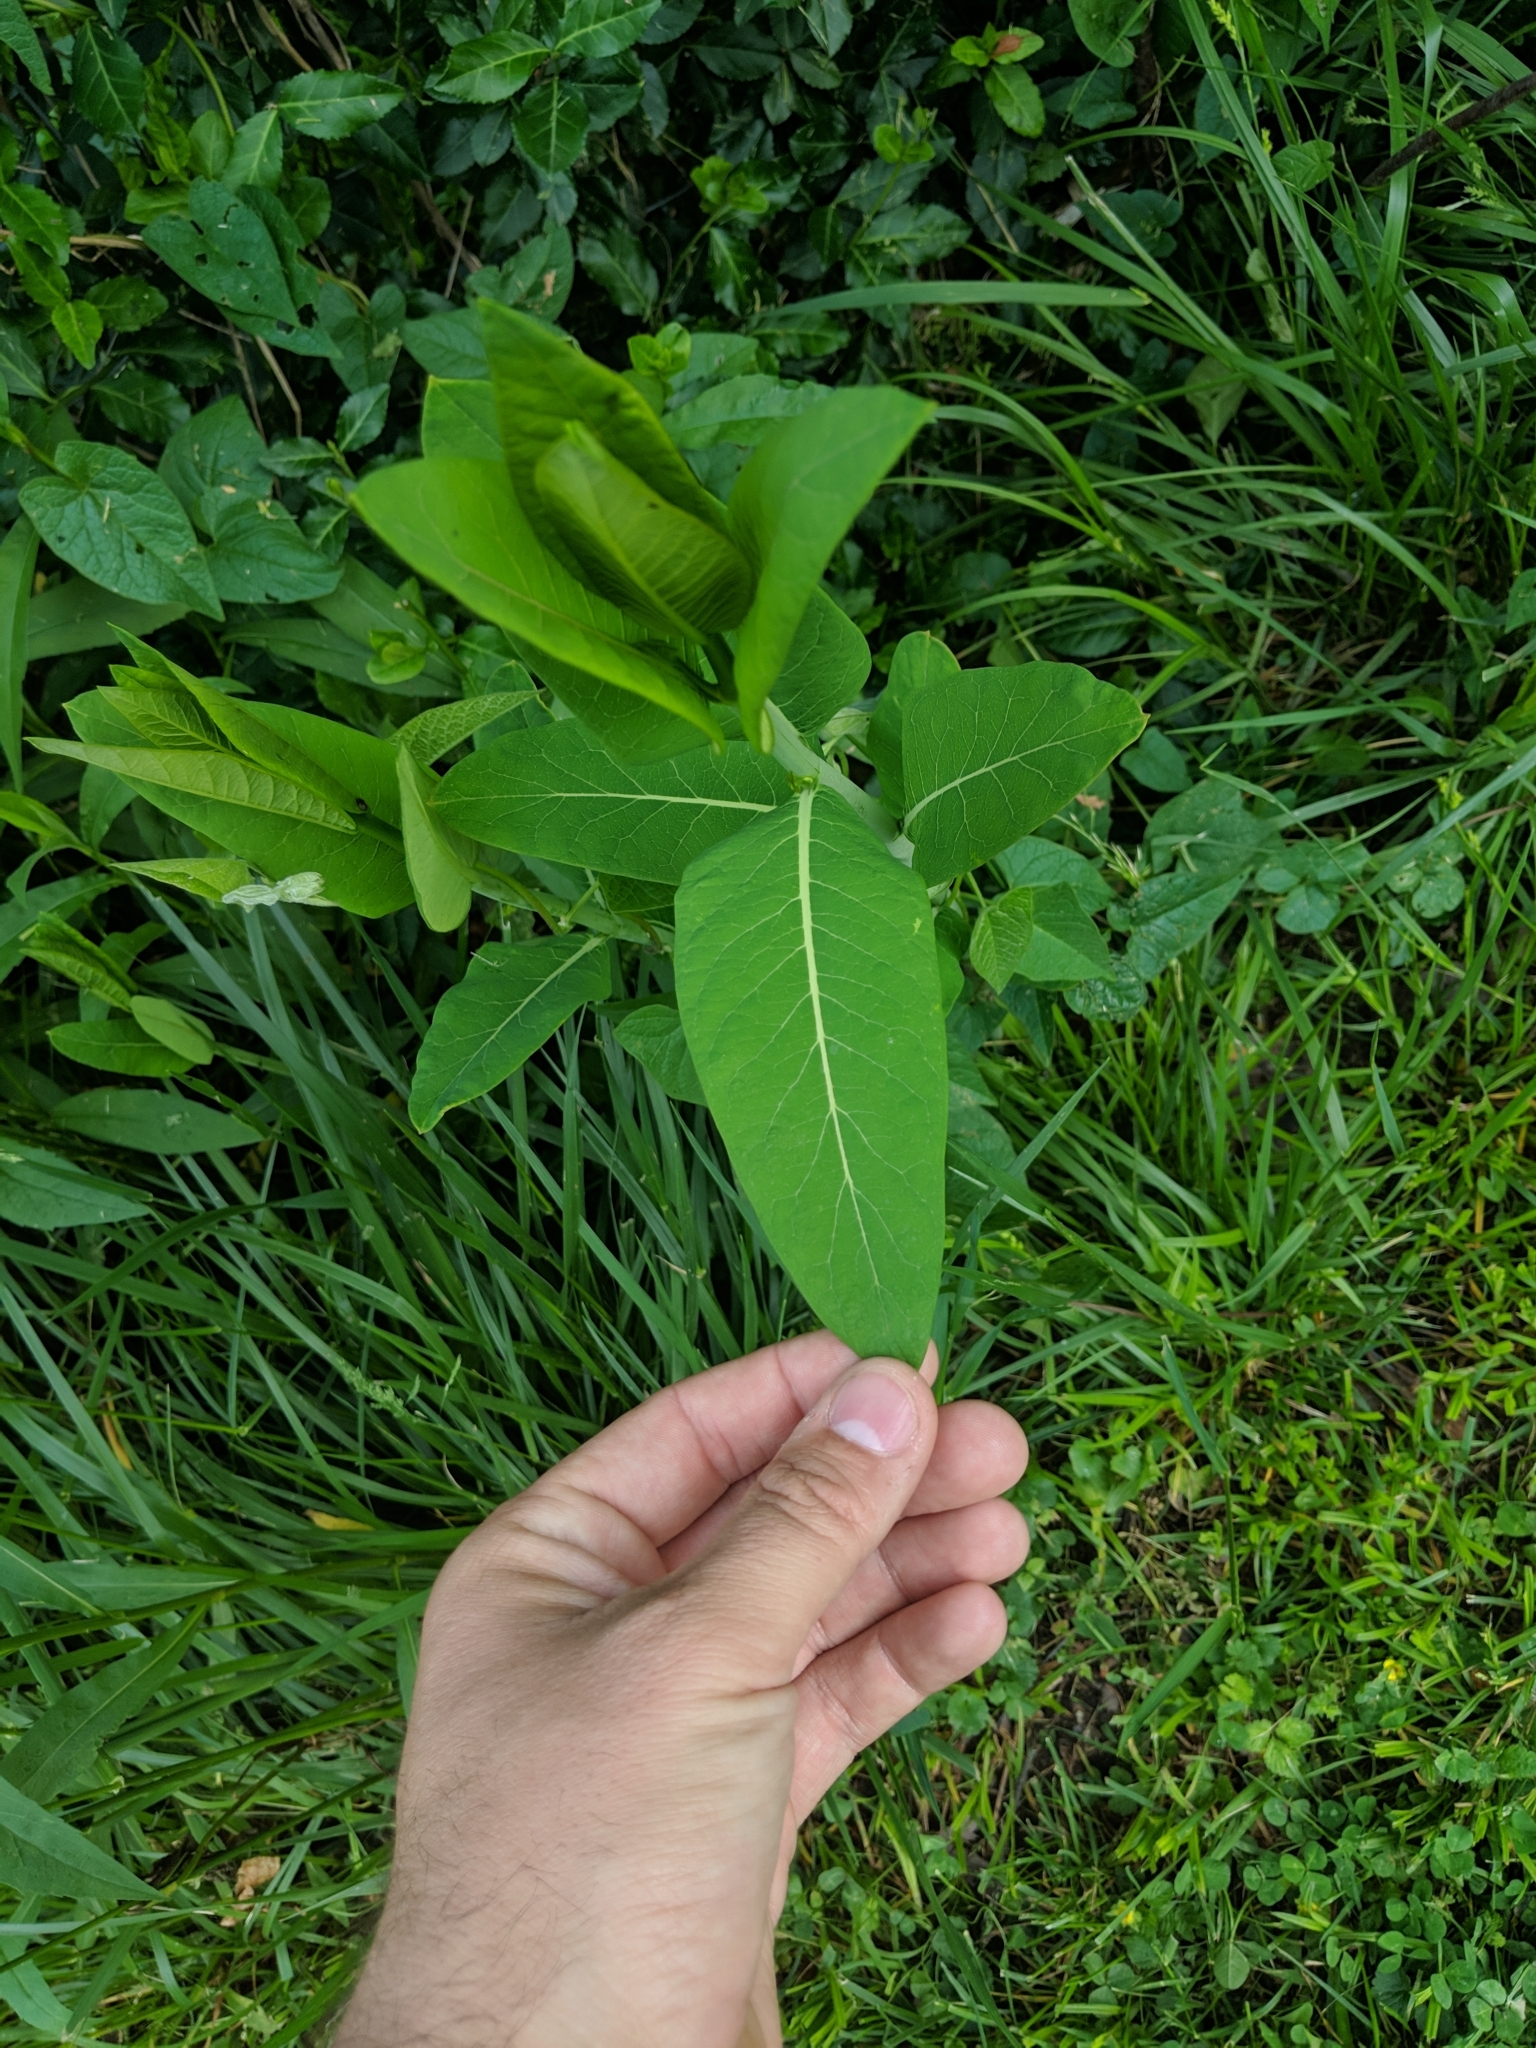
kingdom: Plantae
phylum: Tracheophyta
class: Magnoliopsida
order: Gentianales
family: Apocynaceae
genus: Apocynum
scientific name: Apocynum cannabinum
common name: Hemp dogbane
